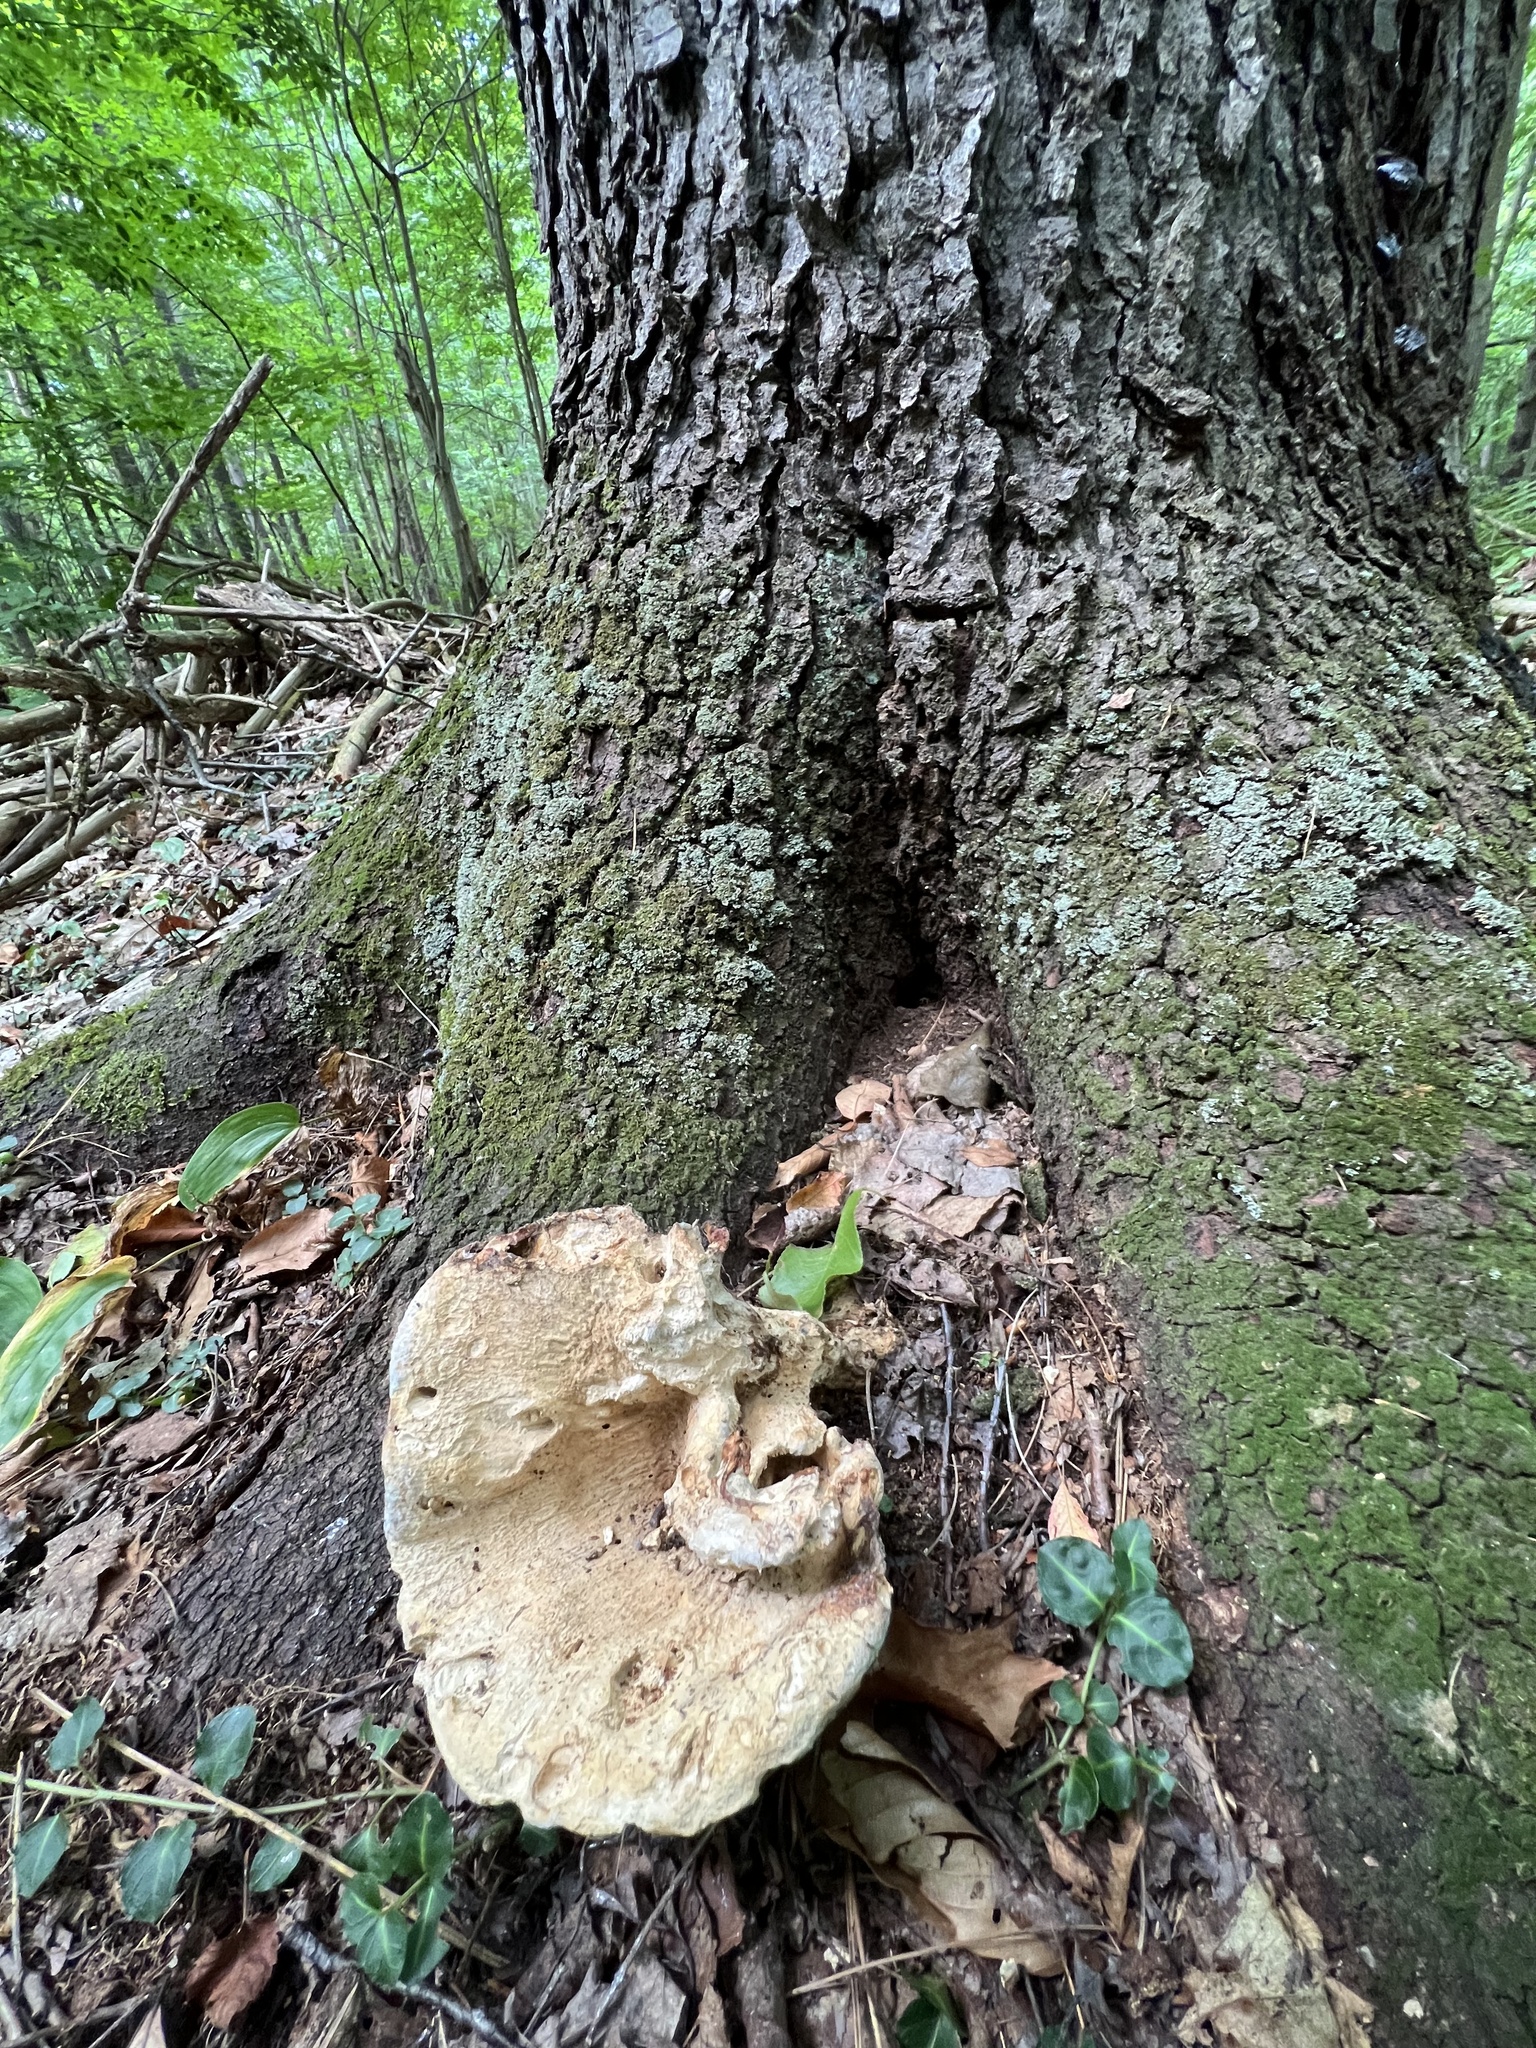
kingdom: Fungi
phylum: Basidiomycota
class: Agaricomycetes
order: Russulales
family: Bondarzewiaceae
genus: Bondarzewia
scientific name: Bondarzewia berkeleyi
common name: Berkeley's polypore
